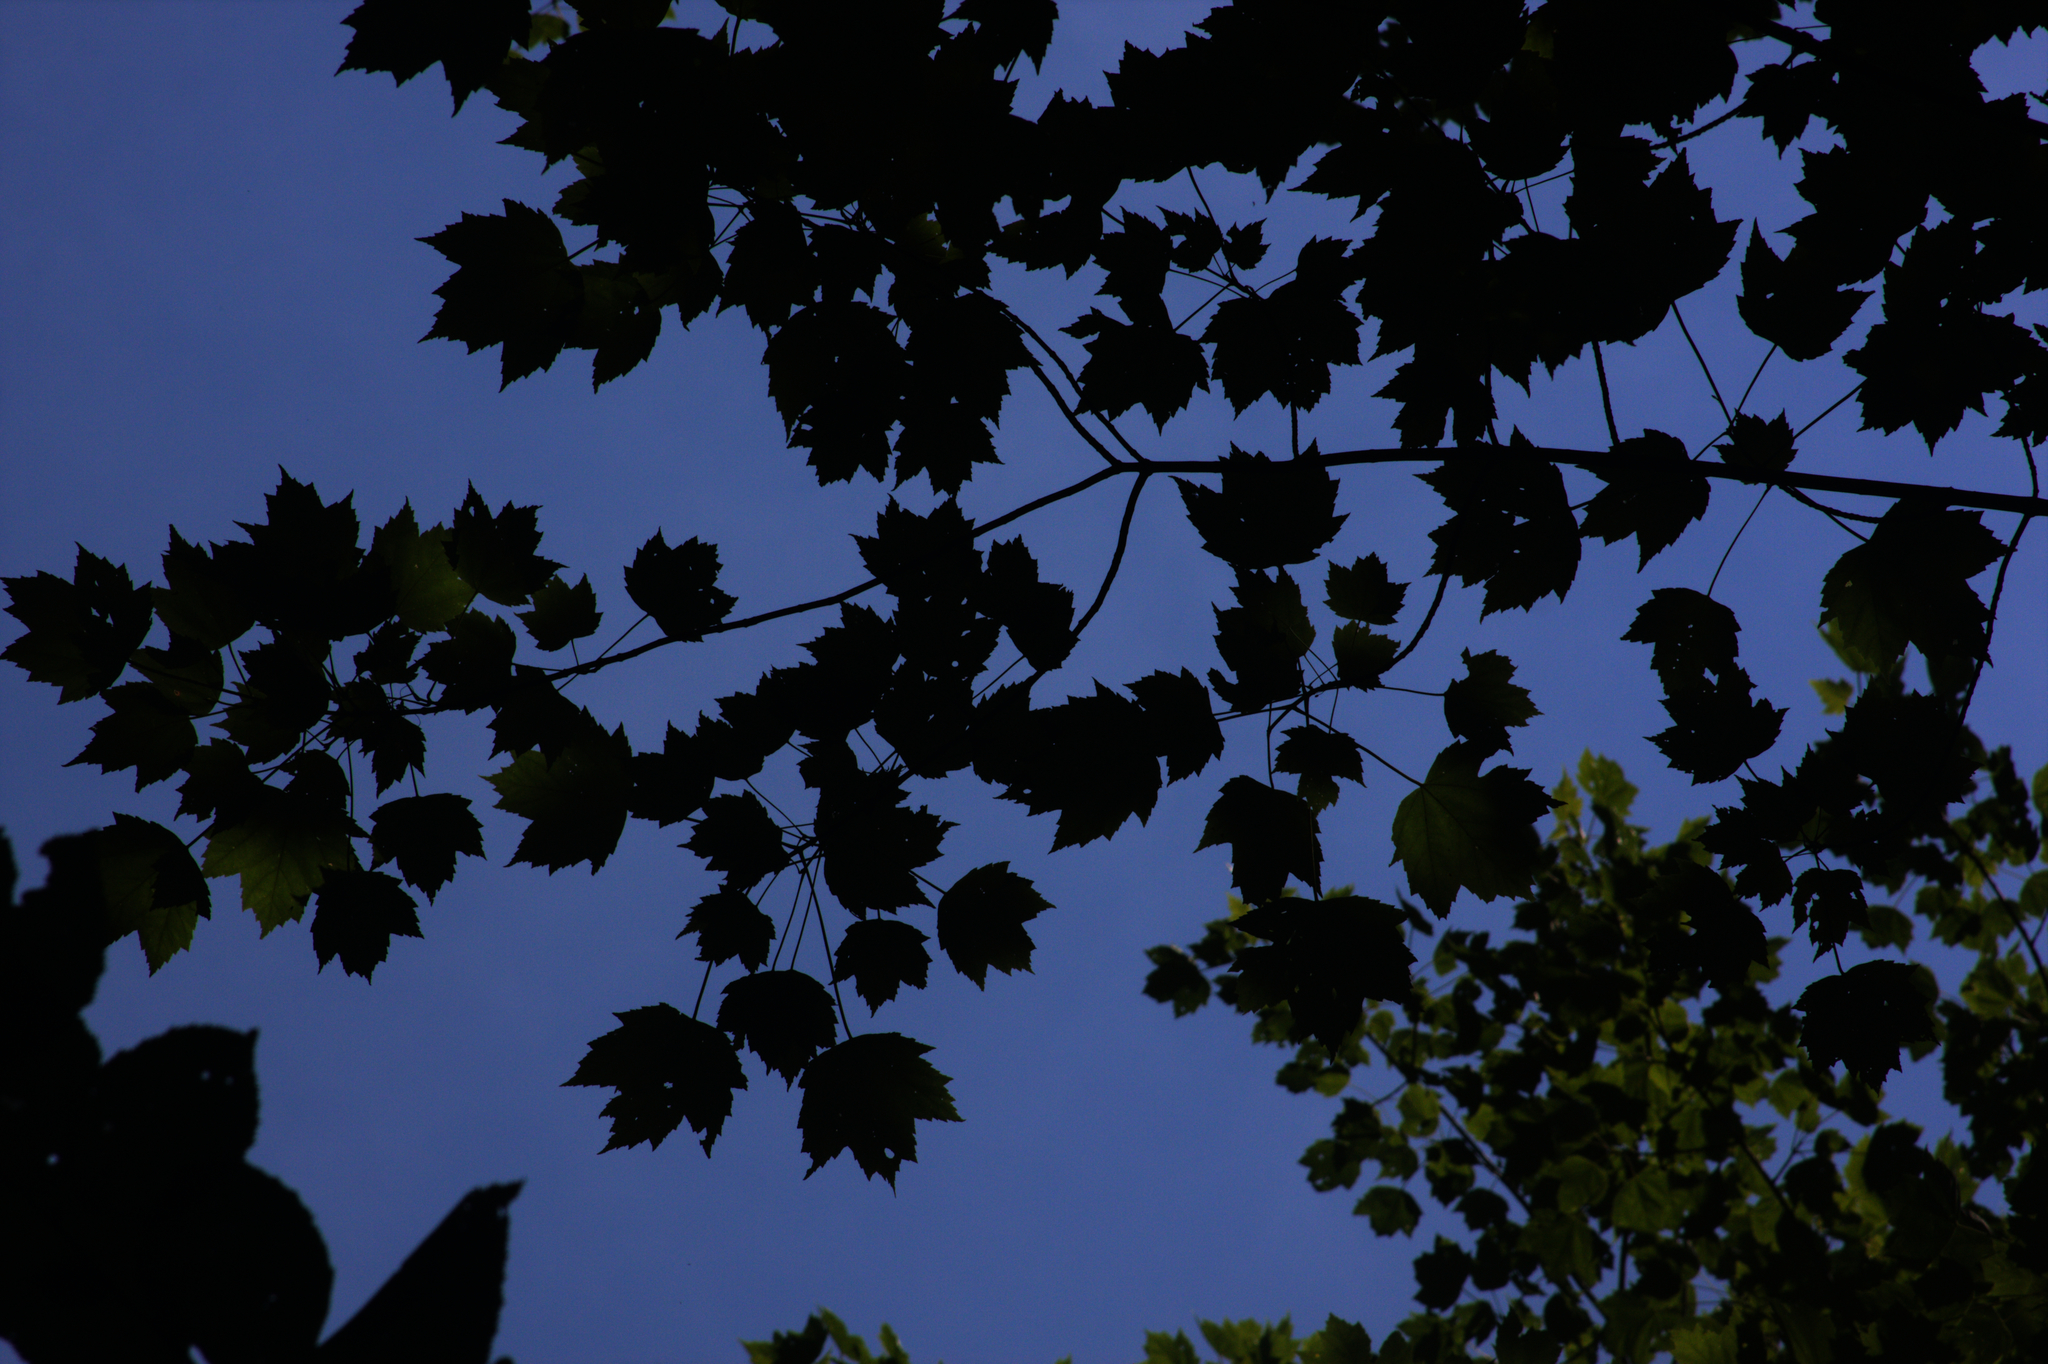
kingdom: Plantae
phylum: Tracheophyta
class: Magnoliopsida
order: Sapindales
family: Sapindaceae
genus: Acer
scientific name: Acer rubrum
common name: Red maple
